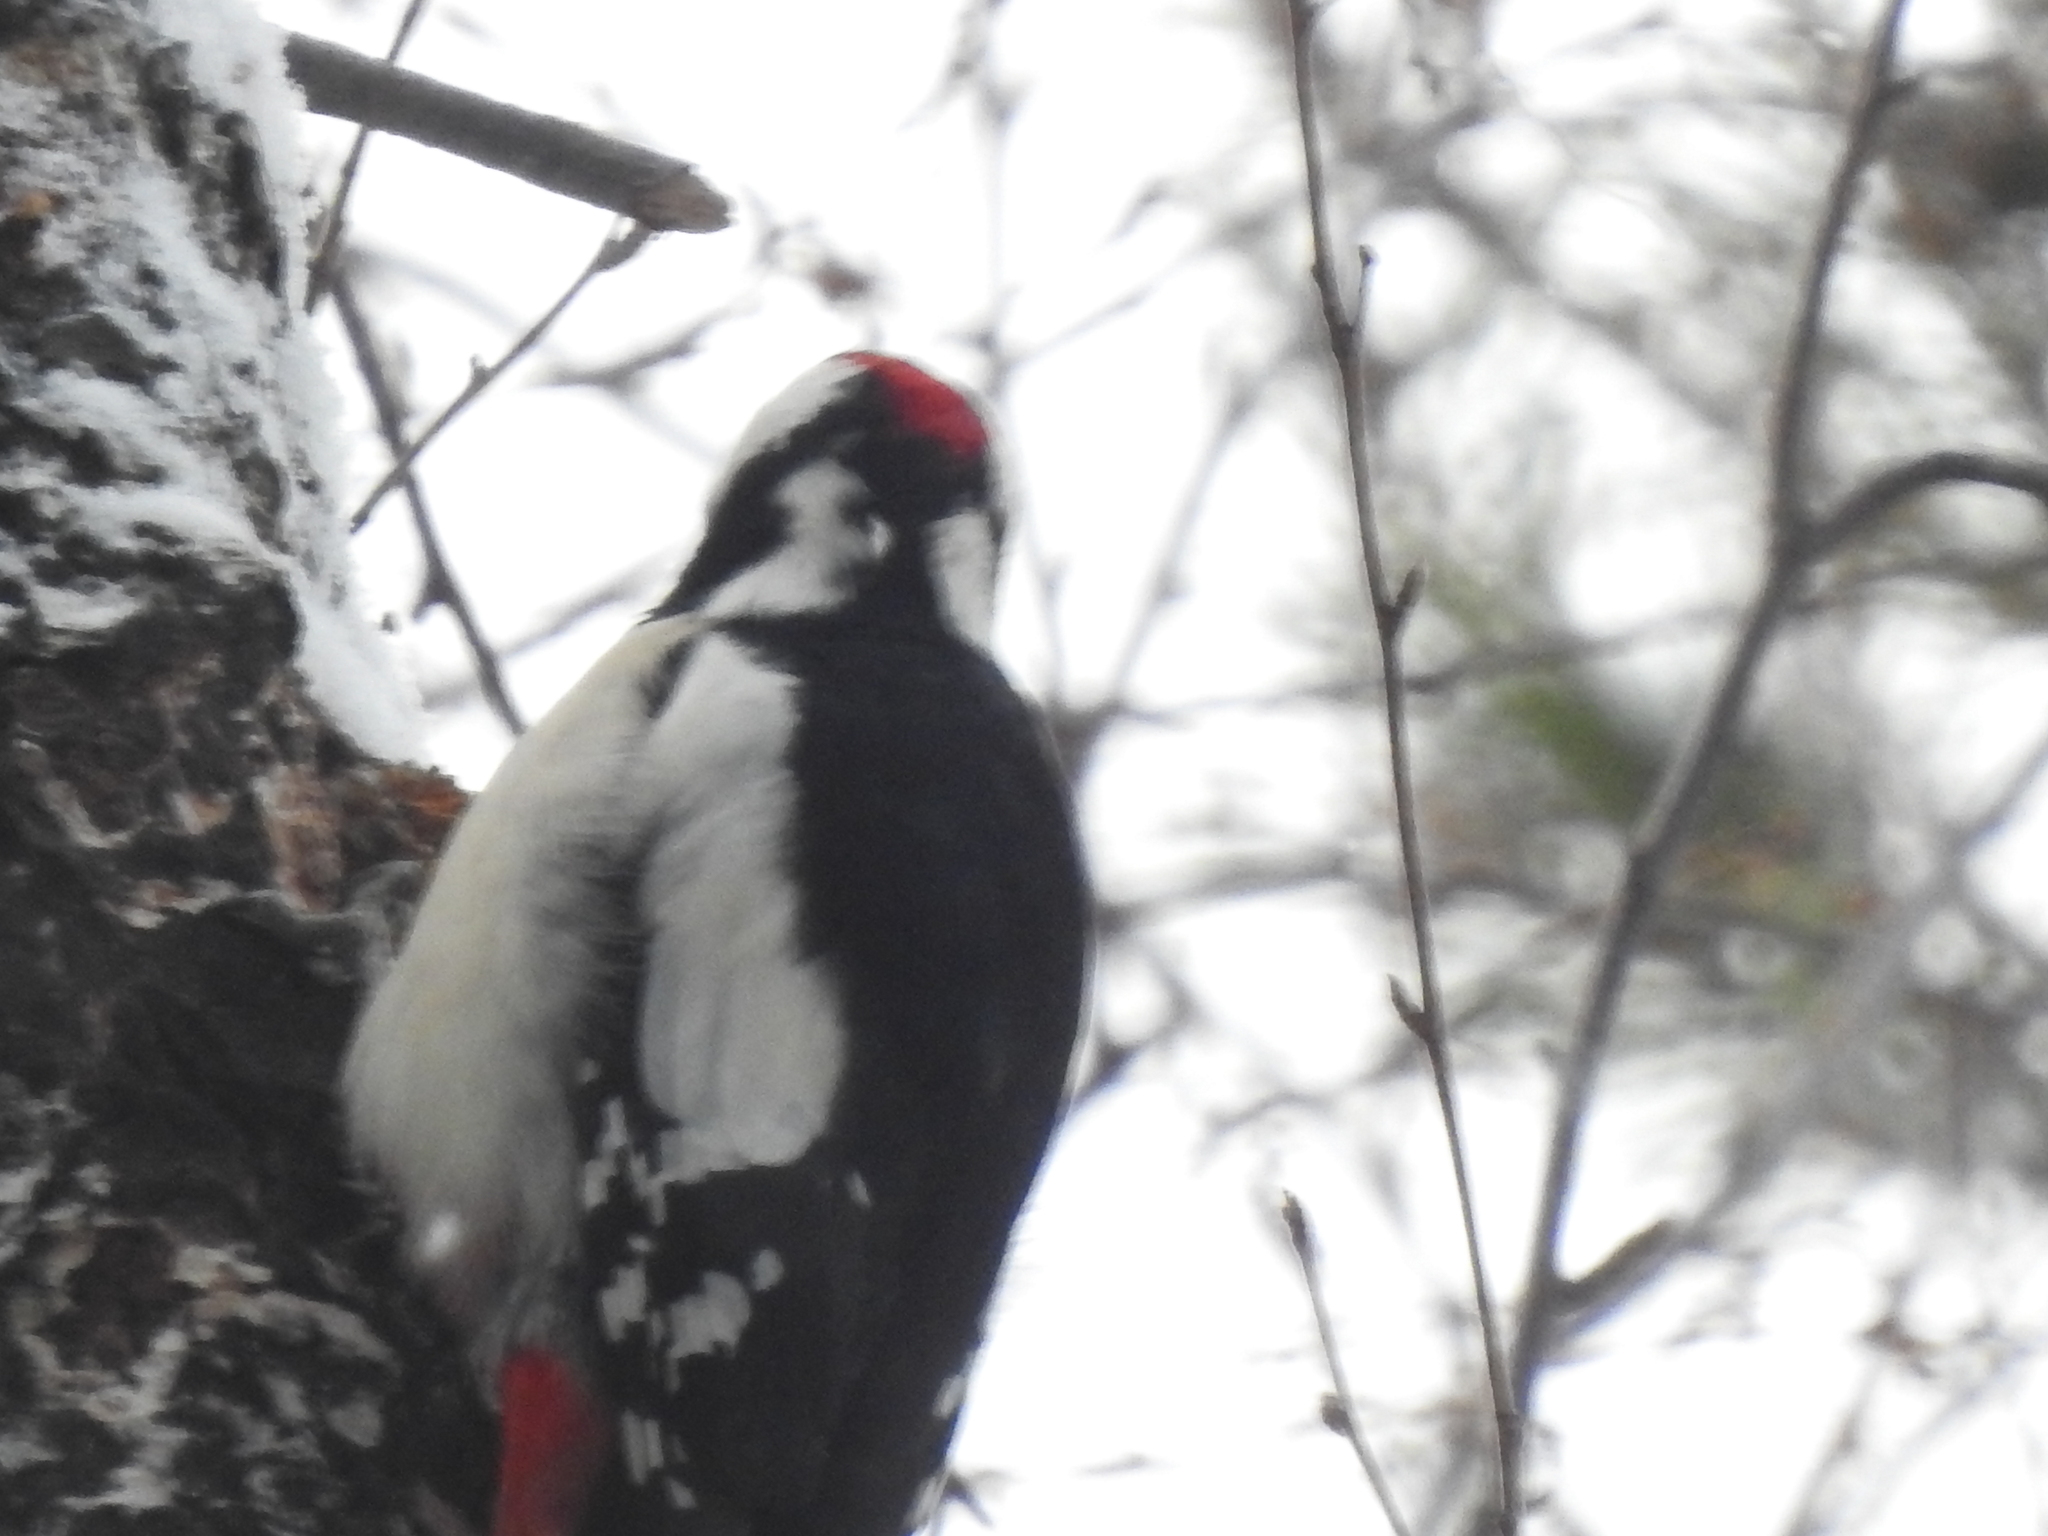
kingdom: Animalia
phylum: Chordata
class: Aves
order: Piciformes
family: Picidae
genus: Dendrocopos
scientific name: Dendrocopos major
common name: Great spotted woodpecker
